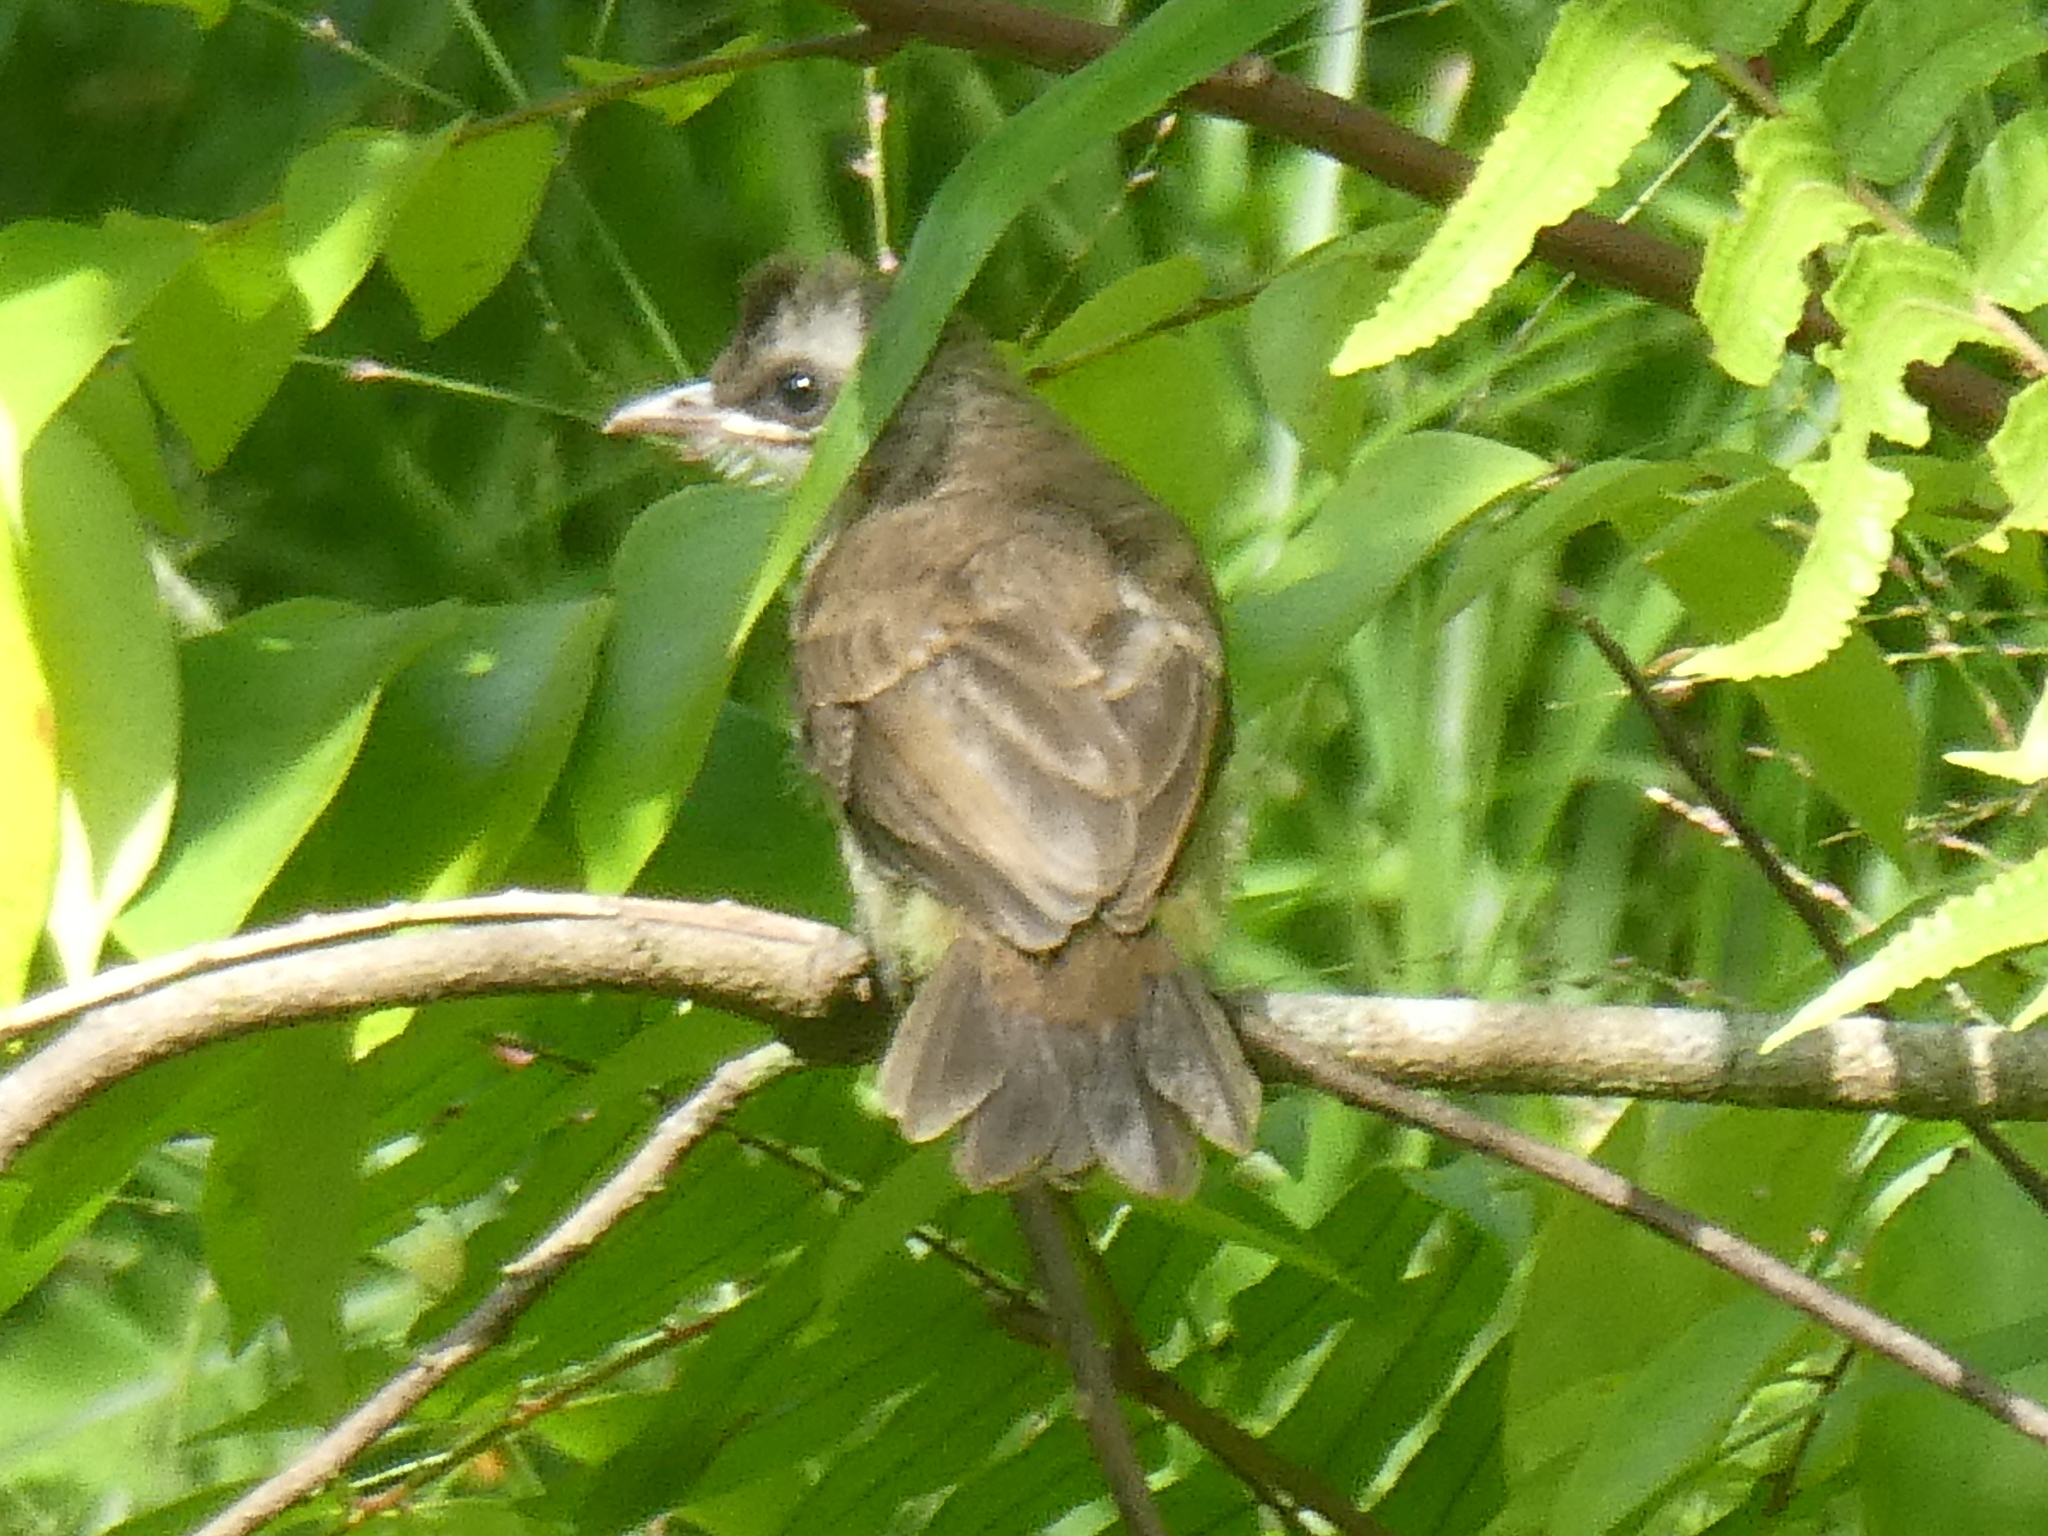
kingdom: Animalia
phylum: Chordata
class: Aves
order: Passeriformes
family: Pycnonotidae
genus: Pycnonotus
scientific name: Pycnonotus goiavier
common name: Yellow-vented bulbul
